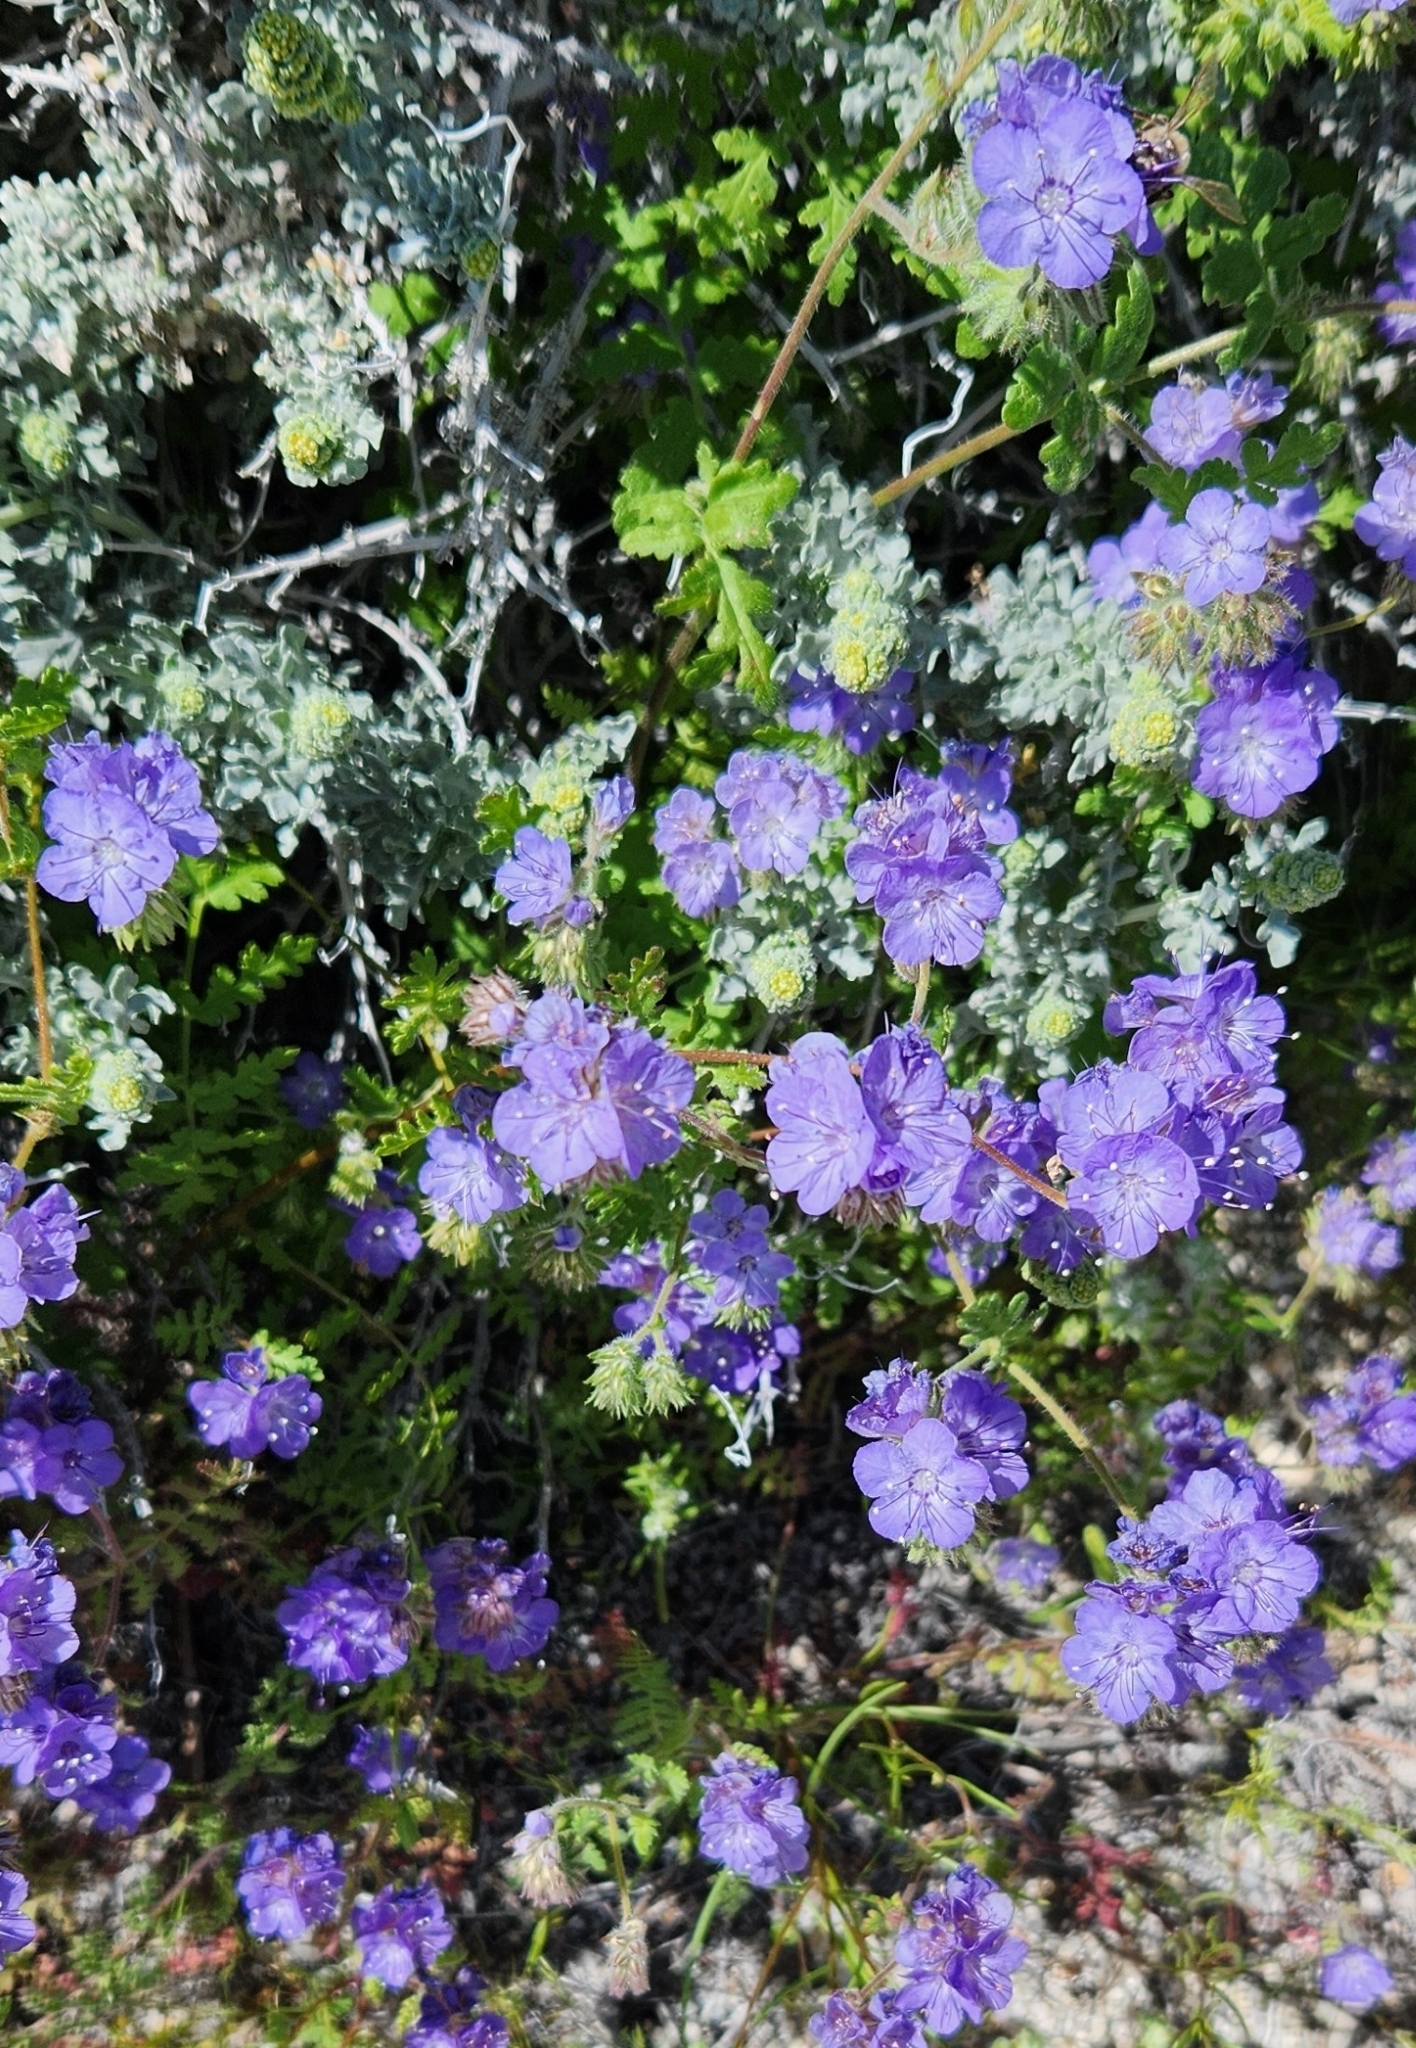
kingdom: Plantae
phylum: Tracheophyta
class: Magnoliopsida
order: Boraginales
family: Hydrophyllaceae
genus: Phacelia
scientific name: Phacelia distans
